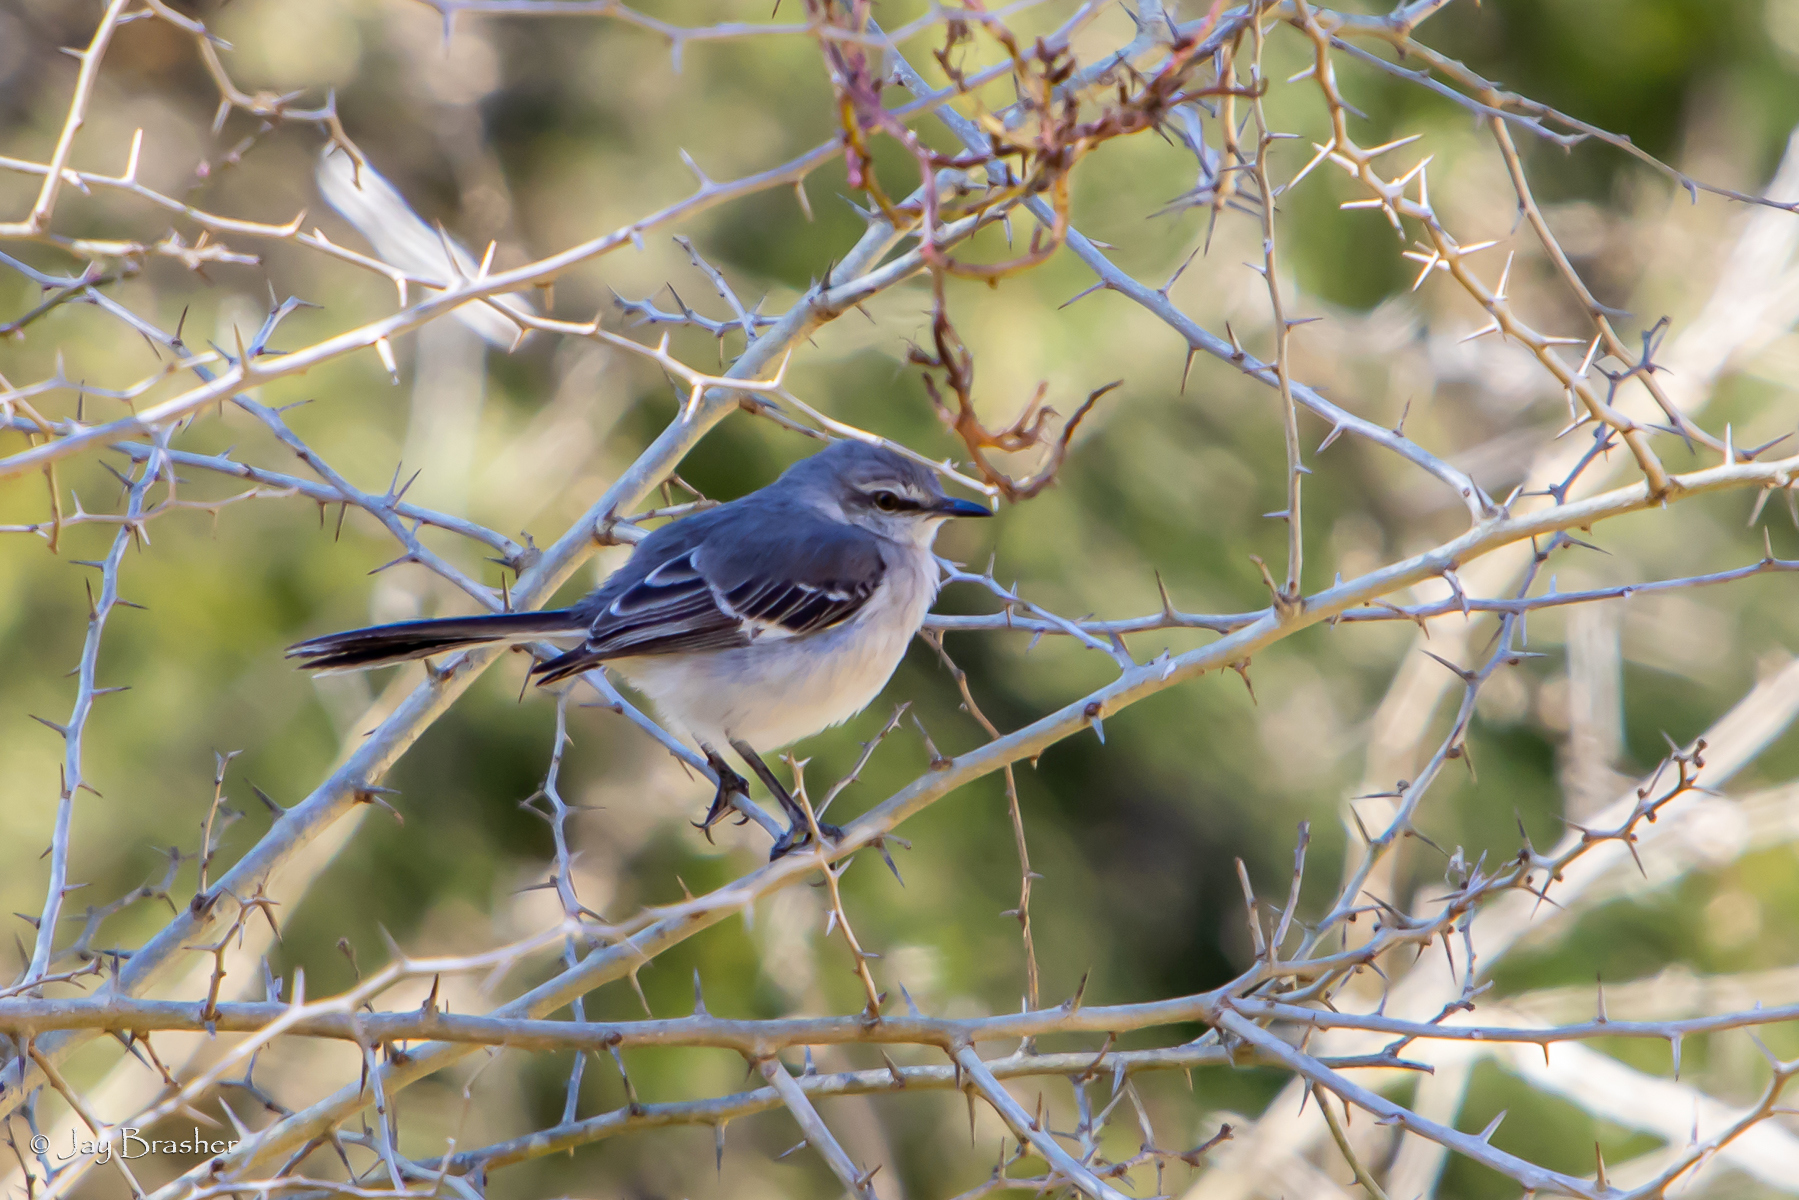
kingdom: Animalia
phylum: Chordata
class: Aves
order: Passeriformes
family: Mimidae
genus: Mimus
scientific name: Mimus polyglottos
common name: Northern mockingbird
